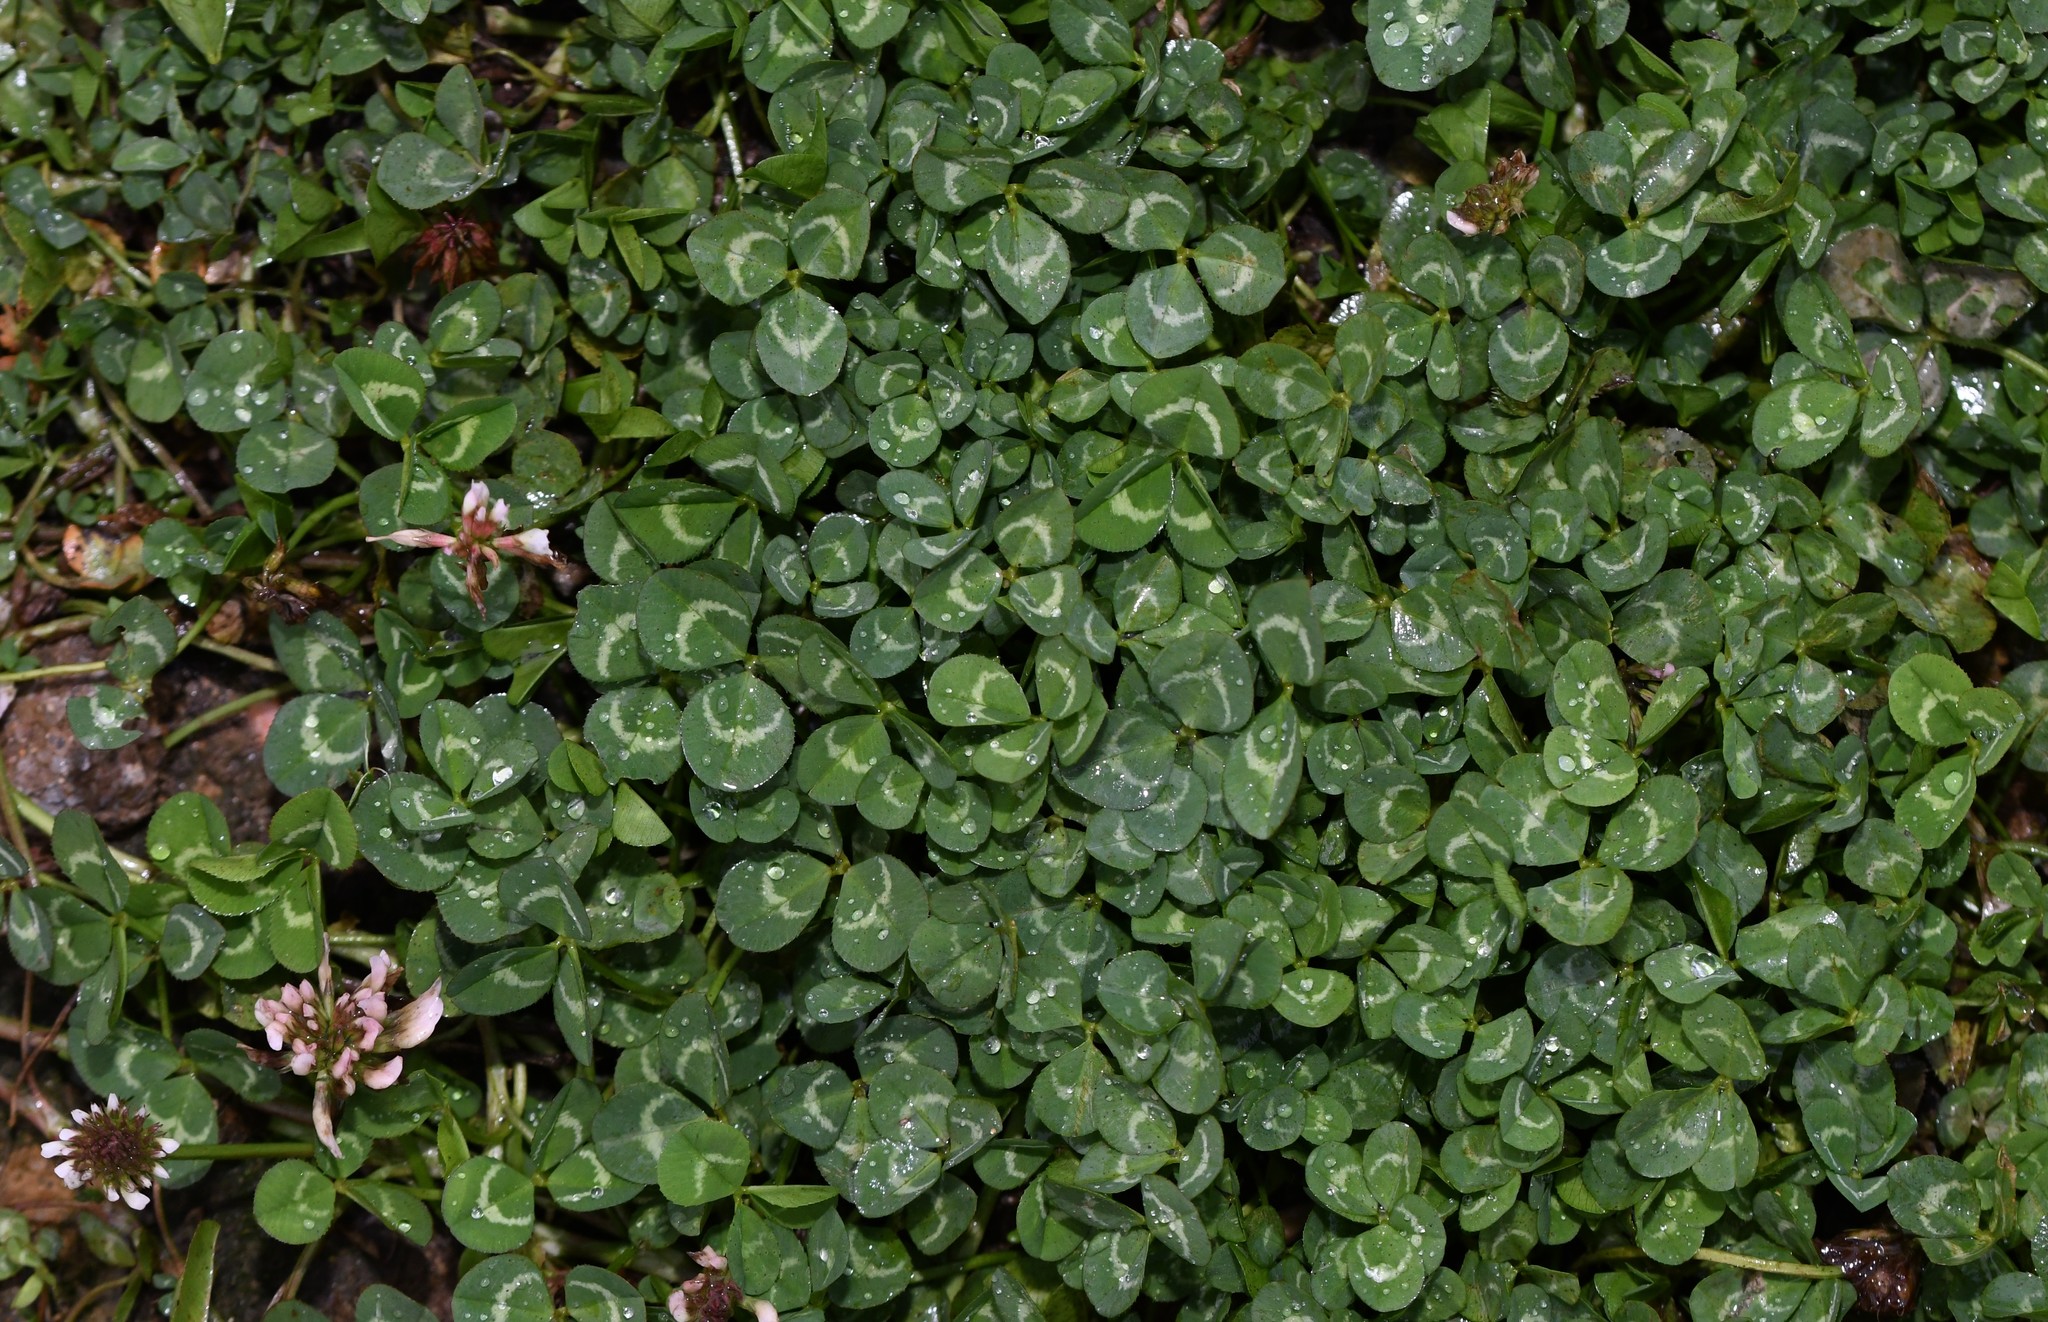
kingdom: Plantae
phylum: Tracheophyta
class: Magnoliopsida
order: Fabales
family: Fabaceae
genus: Trifolium
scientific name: Trifolium repens
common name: White clover
